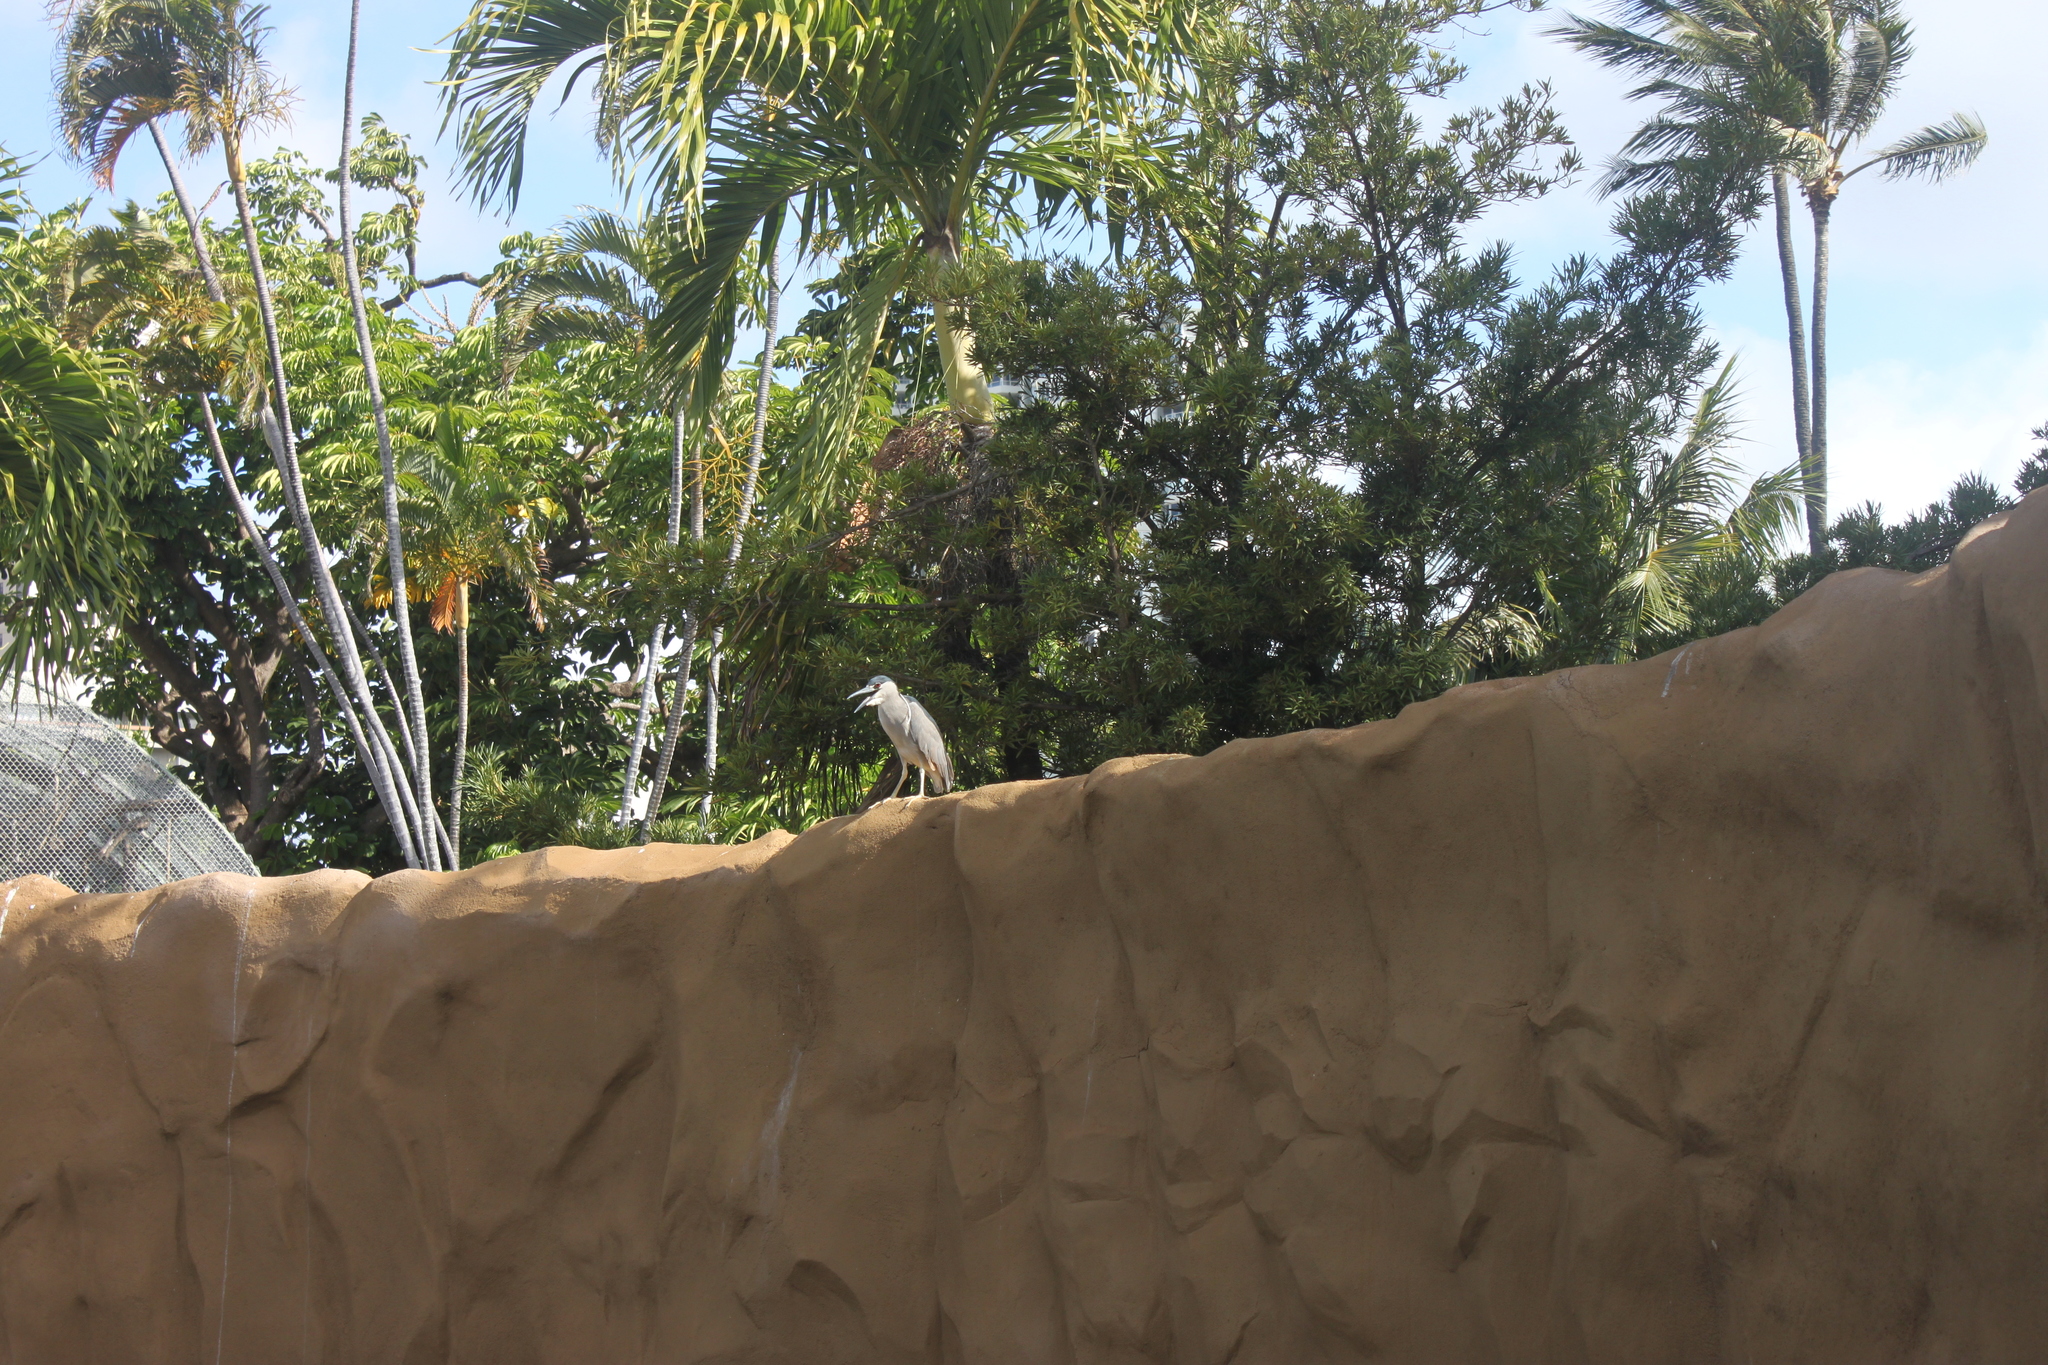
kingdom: Animalia
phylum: Chordata
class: Aves
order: Pelecaniformes
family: Ardeidae
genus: Nycticorax
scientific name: Nycticorax nycticorax
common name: Black-crowned night heron
